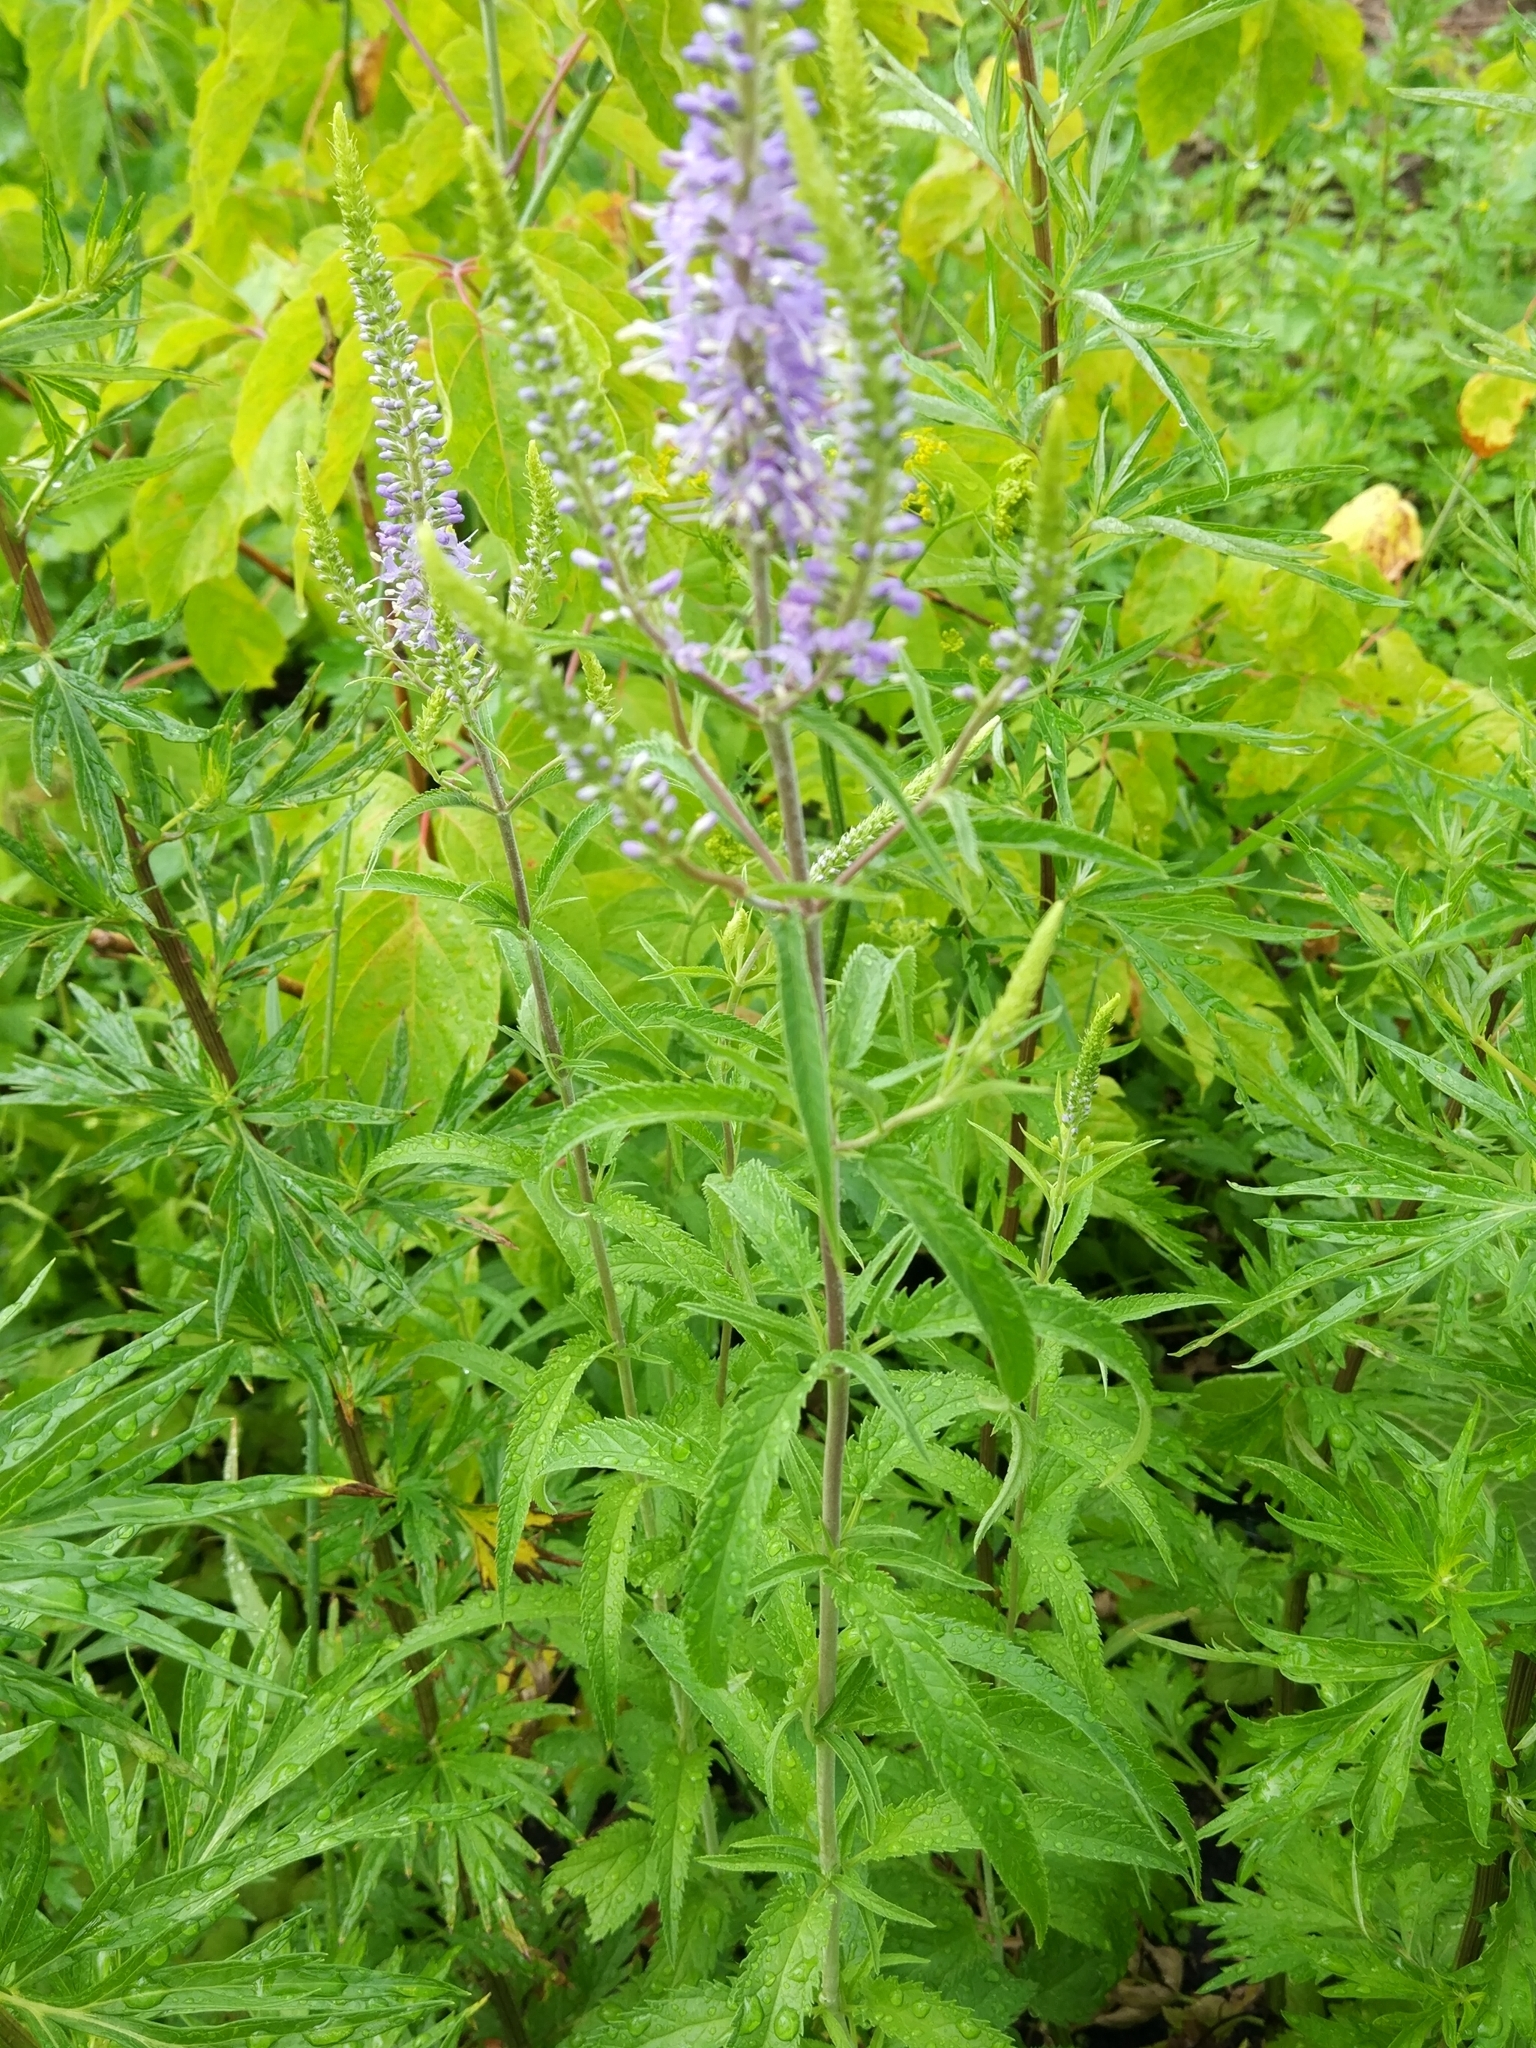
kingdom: Plantae
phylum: Tracheophyta
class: Magnoliopsida
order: Lamiales
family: Plantaginaceae
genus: Veronica
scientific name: Veronica longifolia
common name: Garden speedwell
